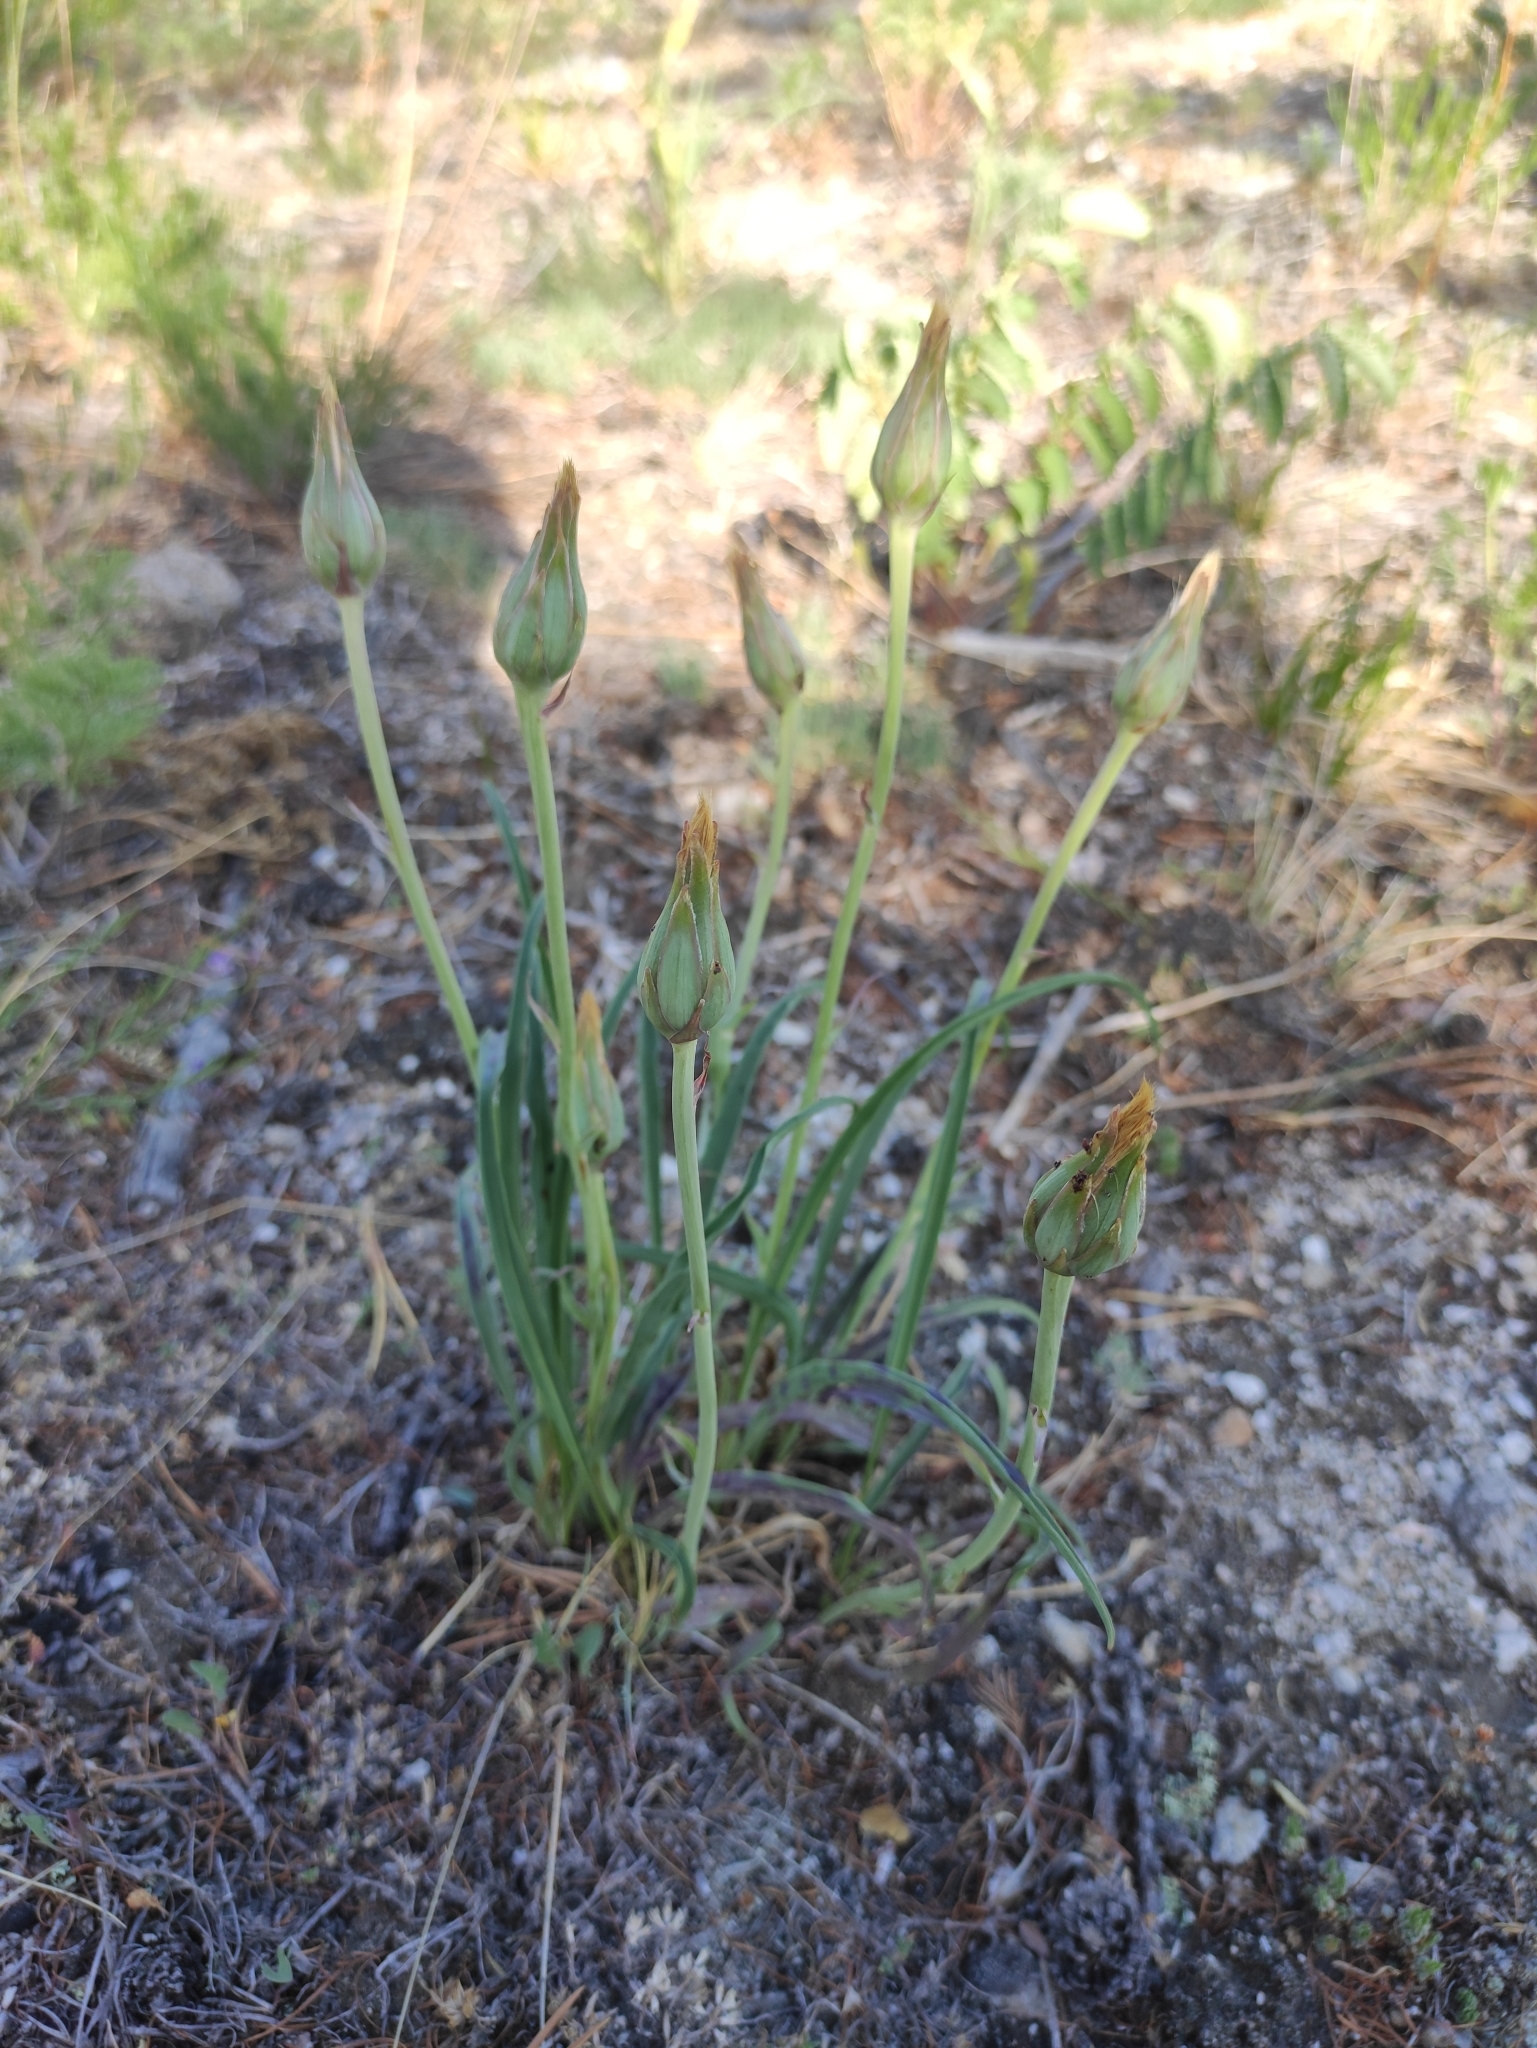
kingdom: Plantae
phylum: Tracheophyta
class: Magnoliopsida
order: Asterales
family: Asteraceae
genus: Takhtajaniantha
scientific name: Takhtajaniantha austriaca
